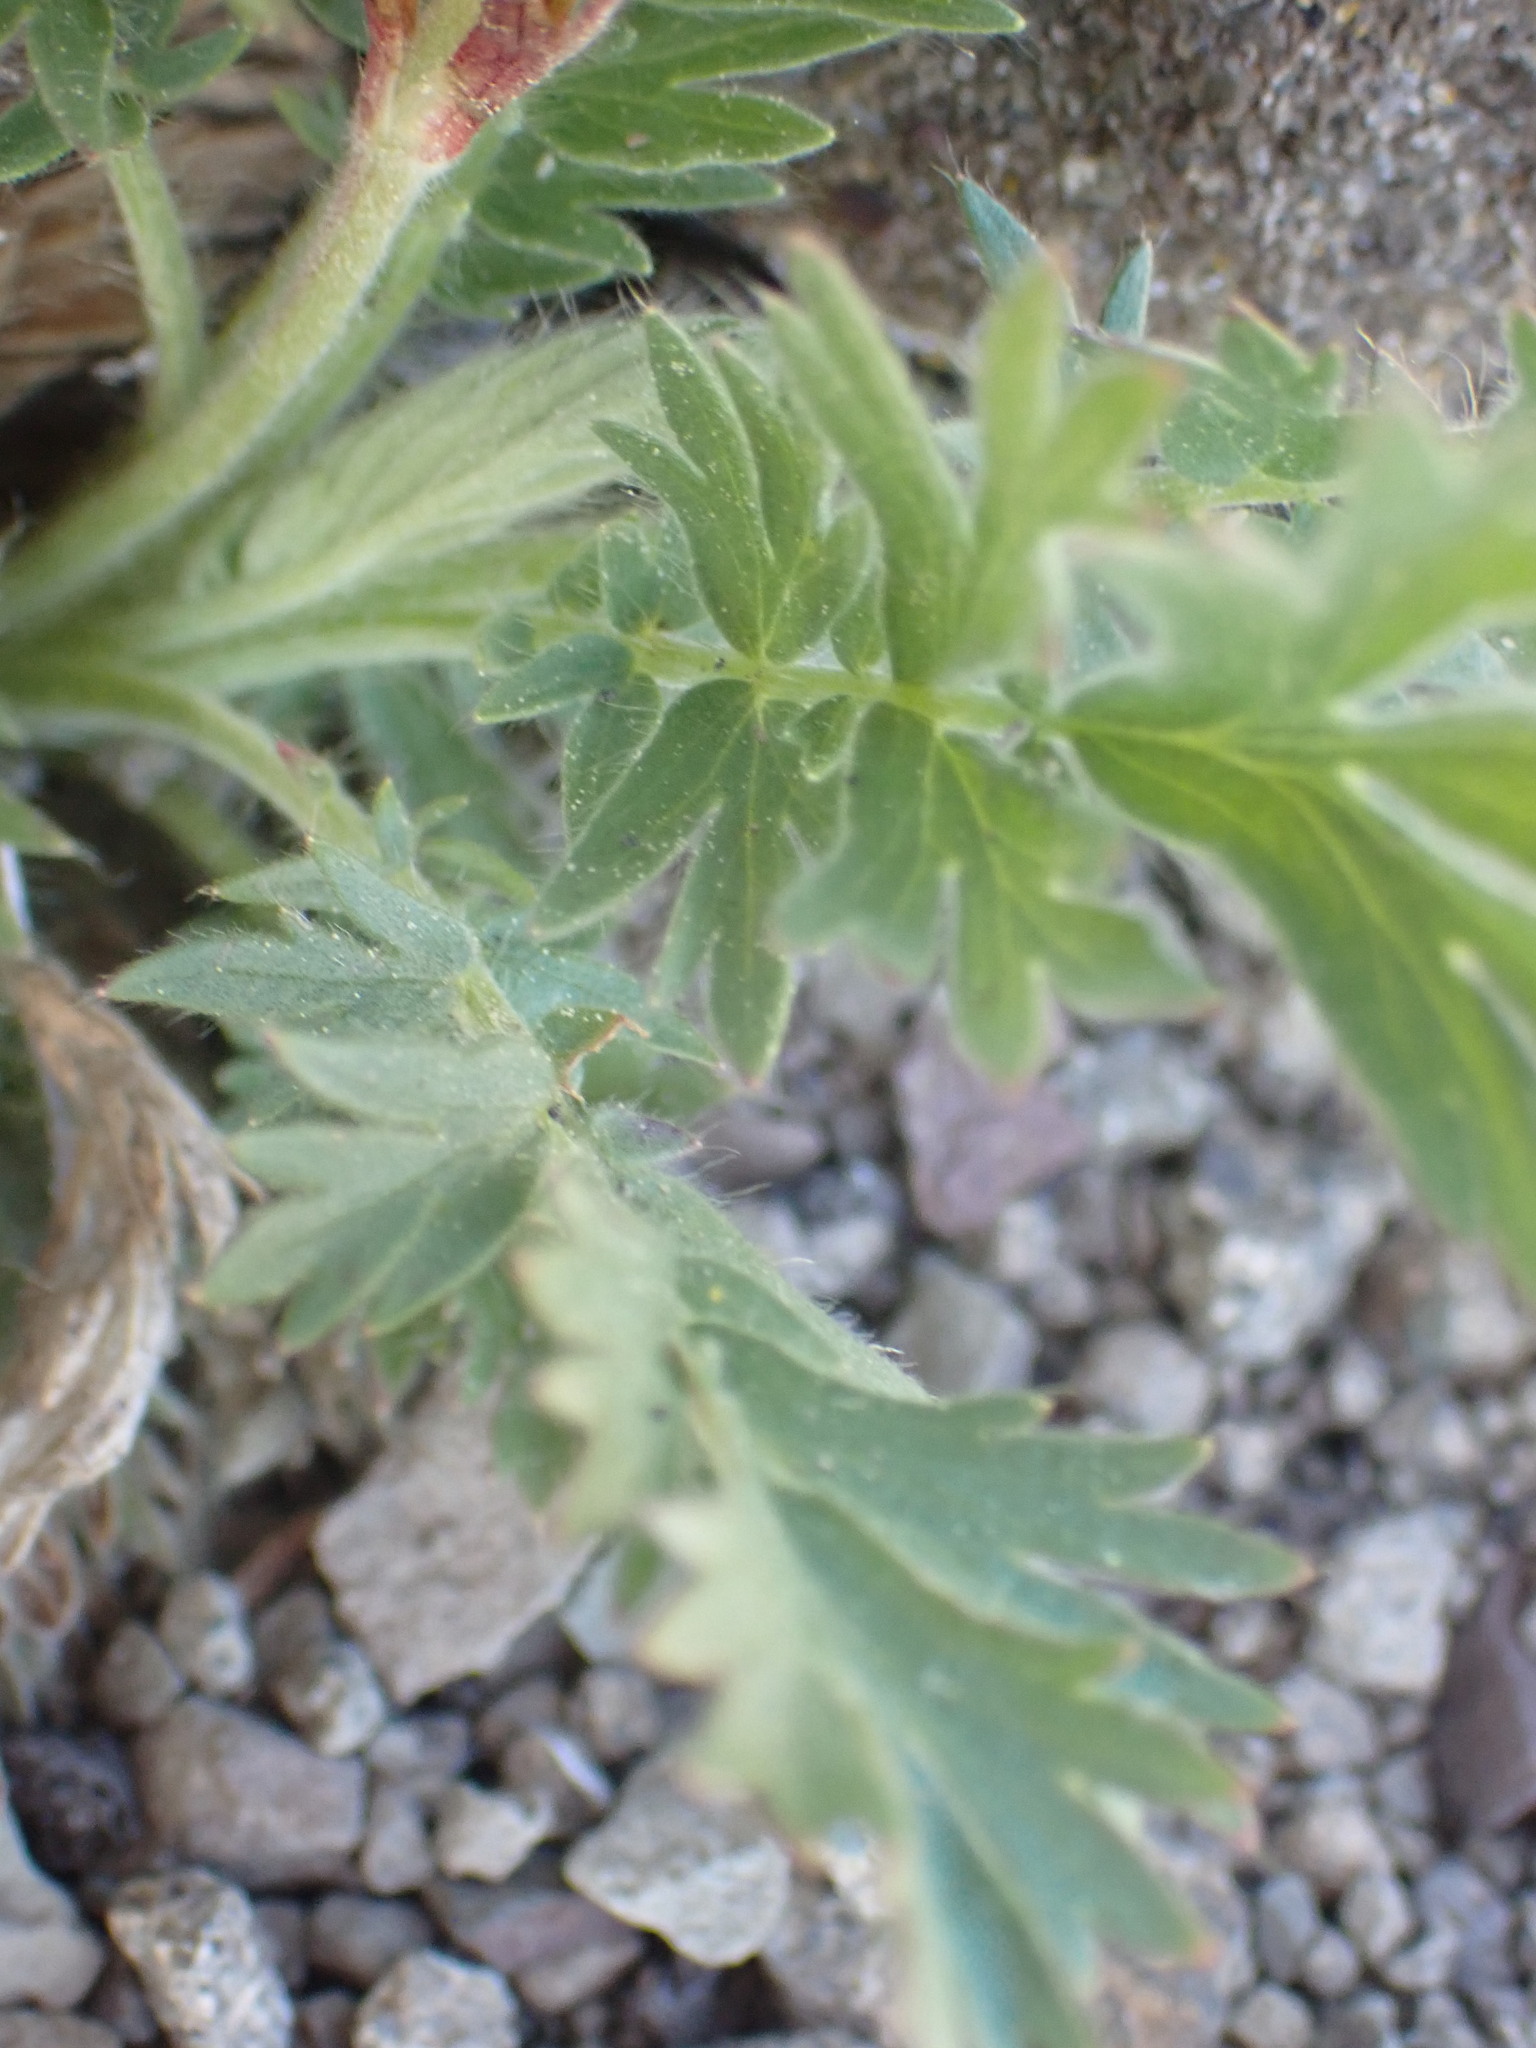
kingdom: Plantae
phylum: Tracheophyta
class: Magnoliopsida
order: Rosales
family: Rosaceae
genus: Geum
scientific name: Geum triflorum
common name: Old man's whiskers
